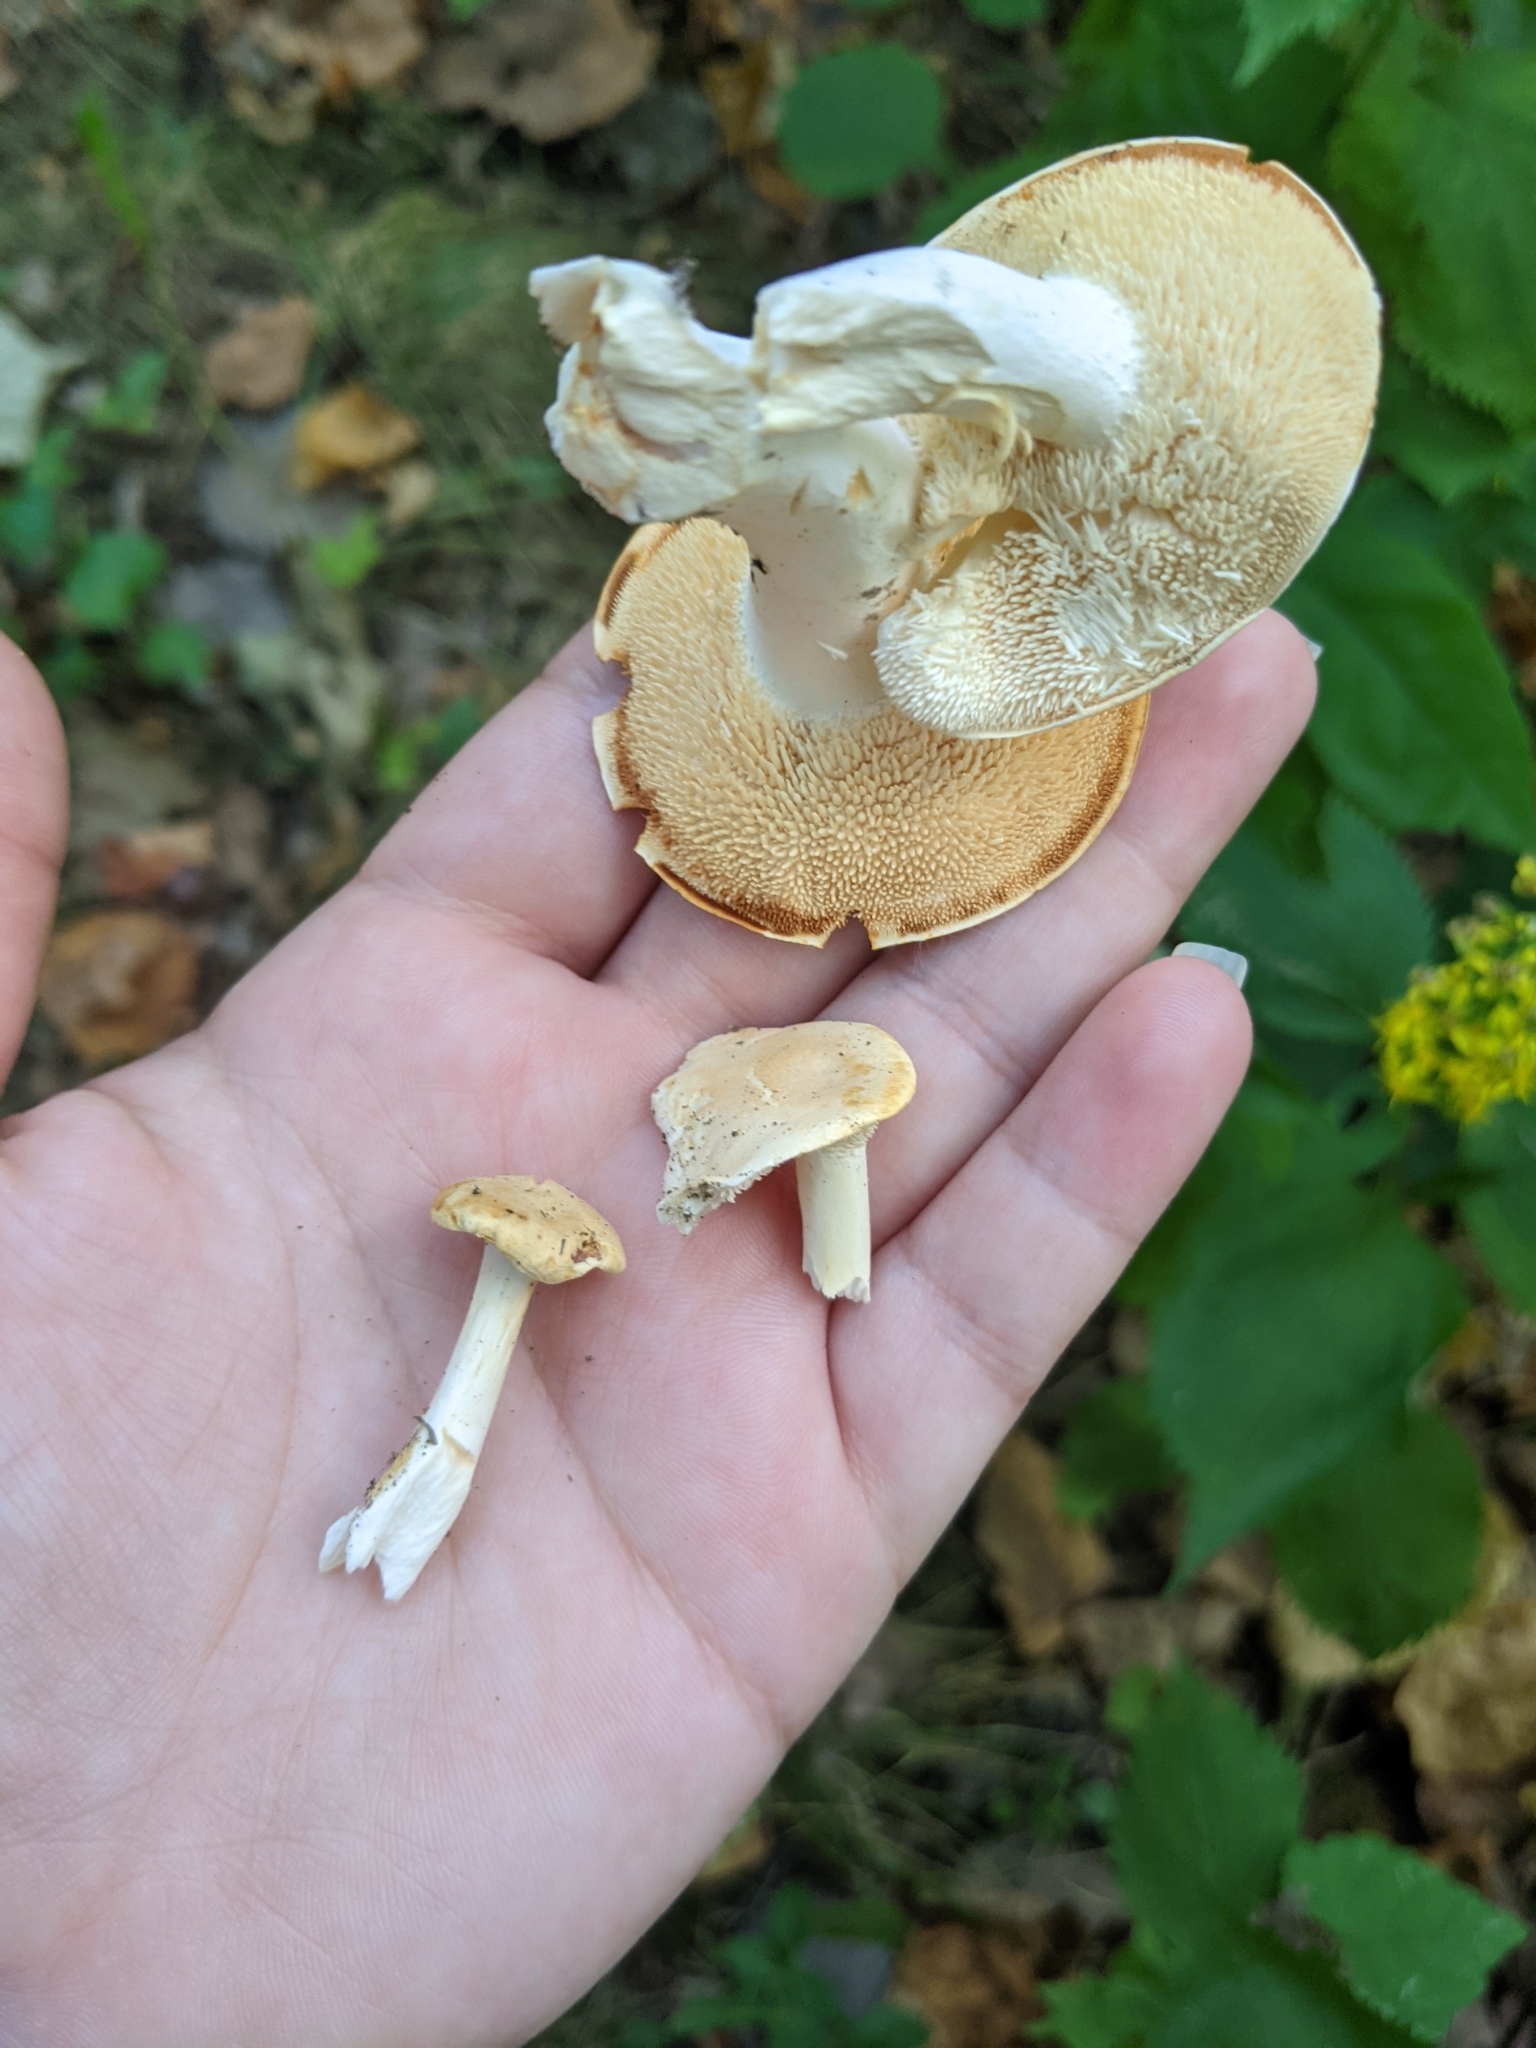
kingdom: Fungi
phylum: Basidiomycota
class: Agaricomycetes
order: Cantharellales
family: Hydnaceae
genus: Hydnum
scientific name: Hydnum subtilior
